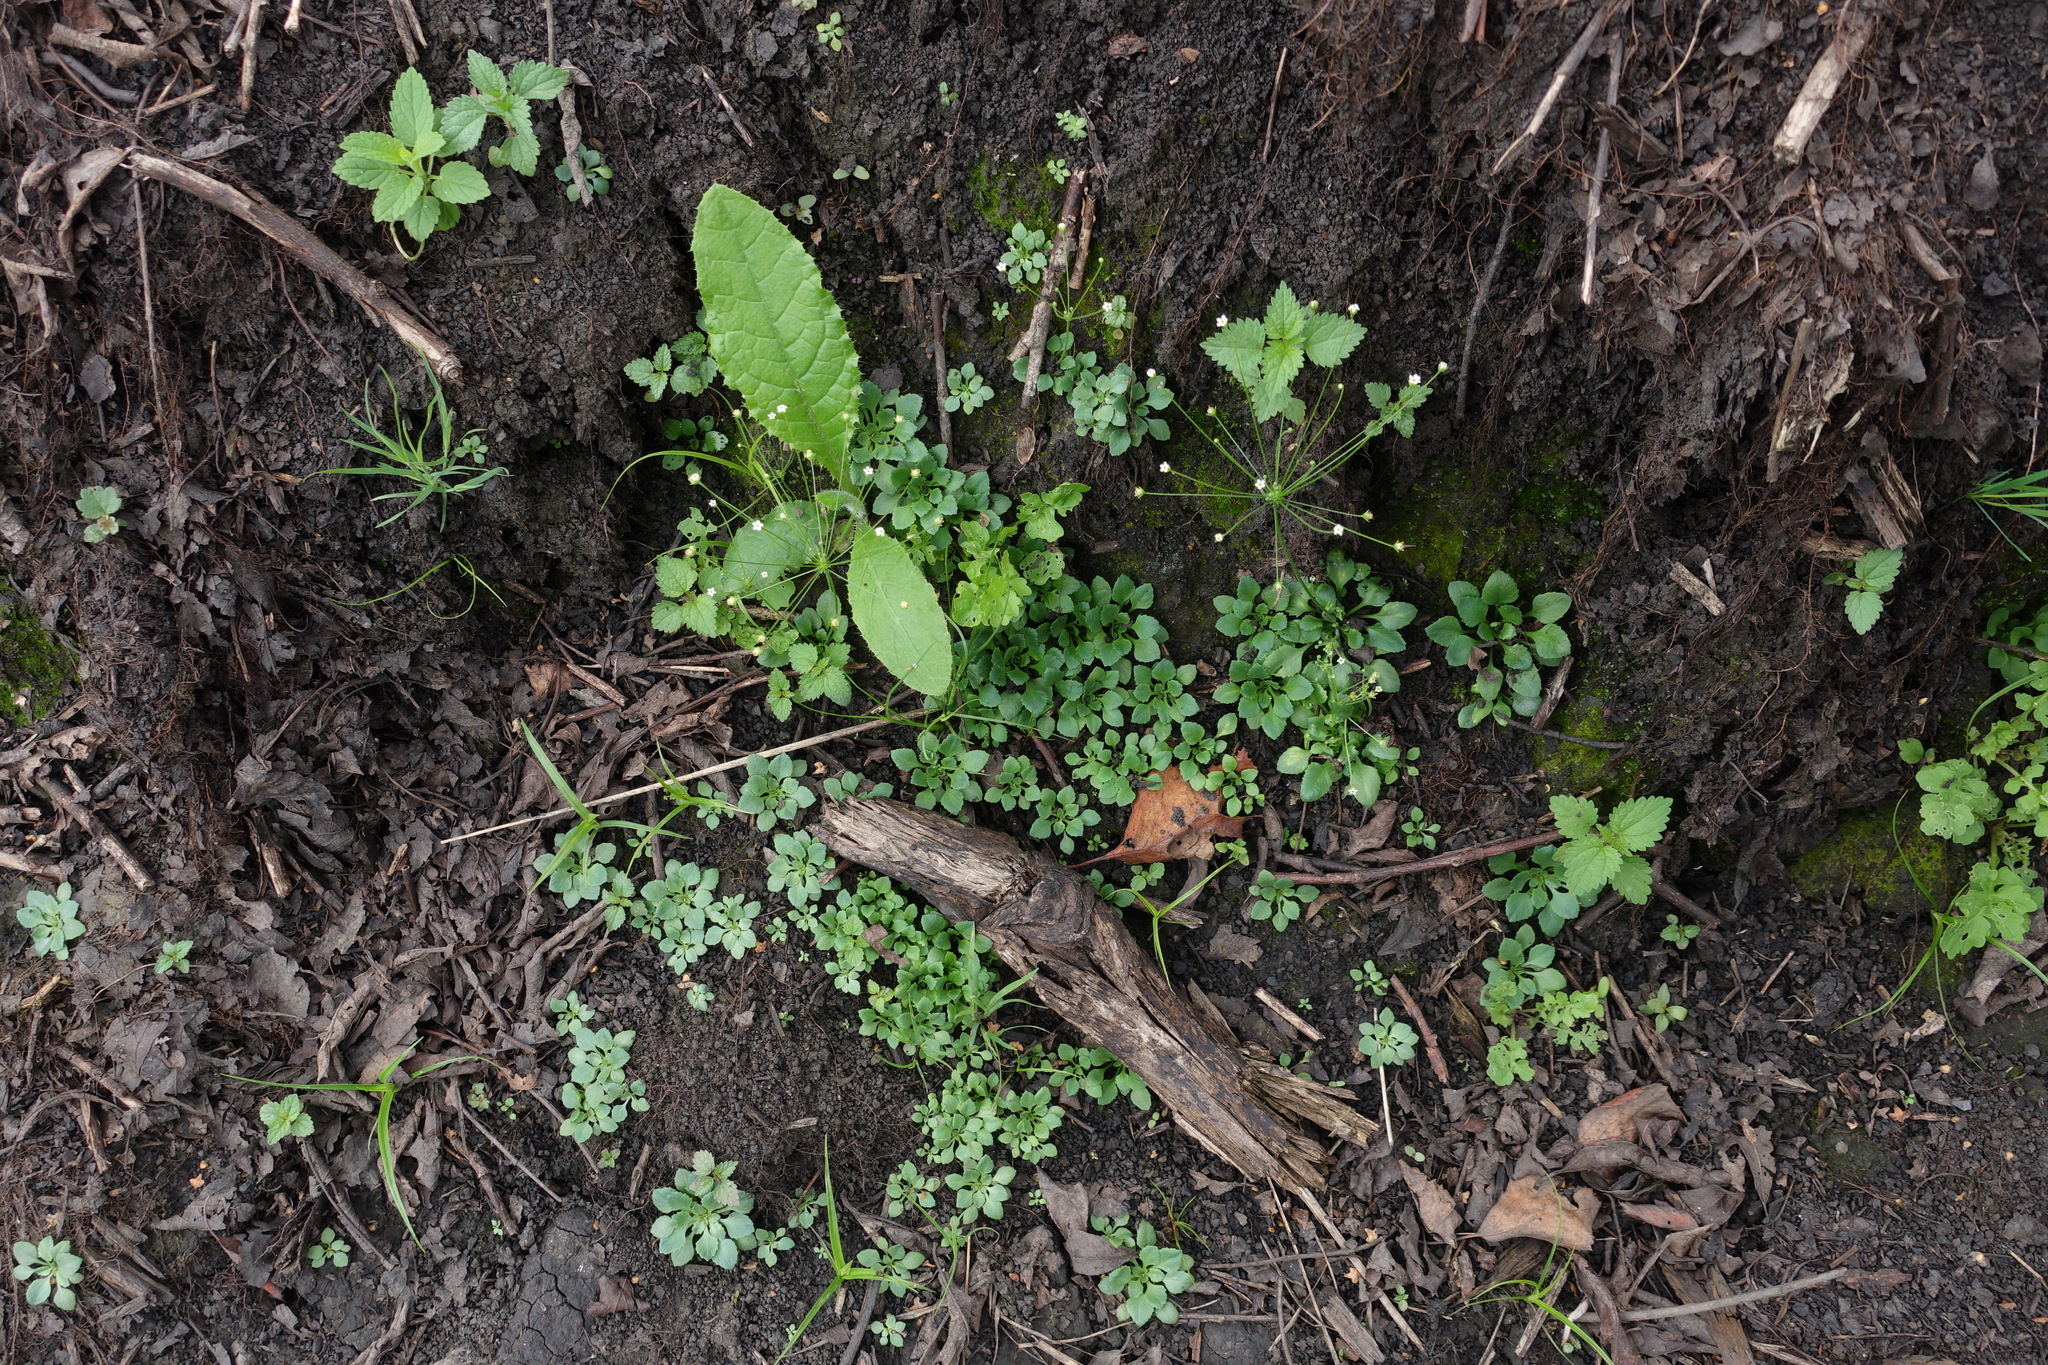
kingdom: Plantae
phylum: Tracheophyta
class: Magnoliopsida
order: Ericales
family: Primulaceae
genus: Androsace
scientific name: Androsace filiformis
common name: Filiform rock jasmine
